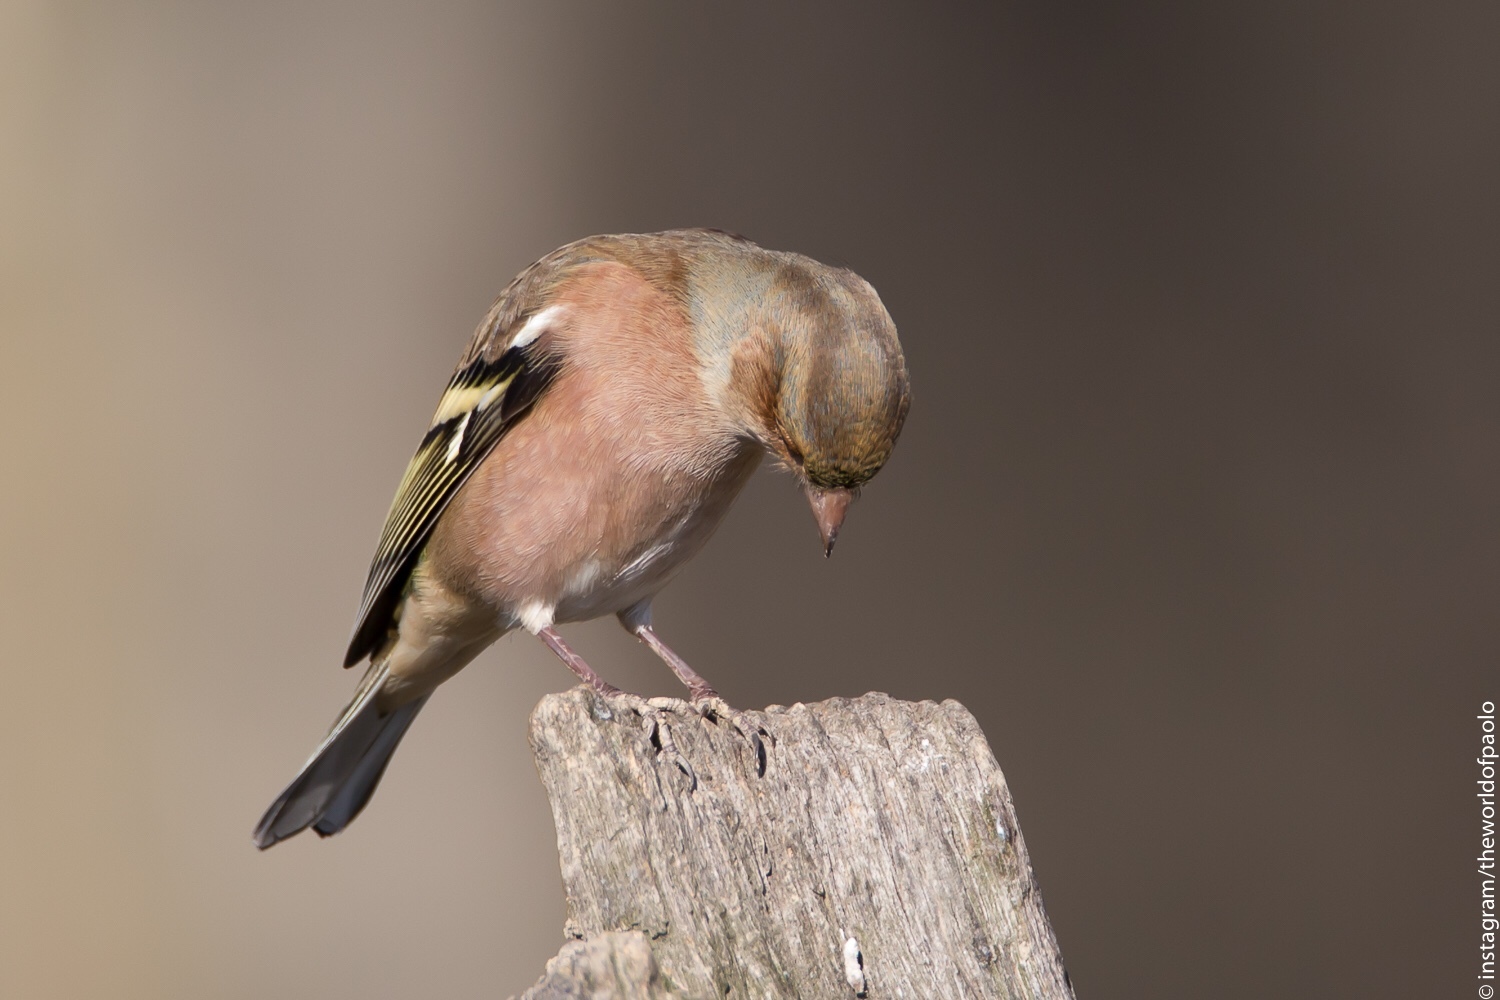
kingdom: Animalia
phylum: Chordata
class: Aves
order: Passeriformes
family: Fringillidae
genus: Fringilla
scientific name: Fringilla coelebs
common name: Common chaffinch
